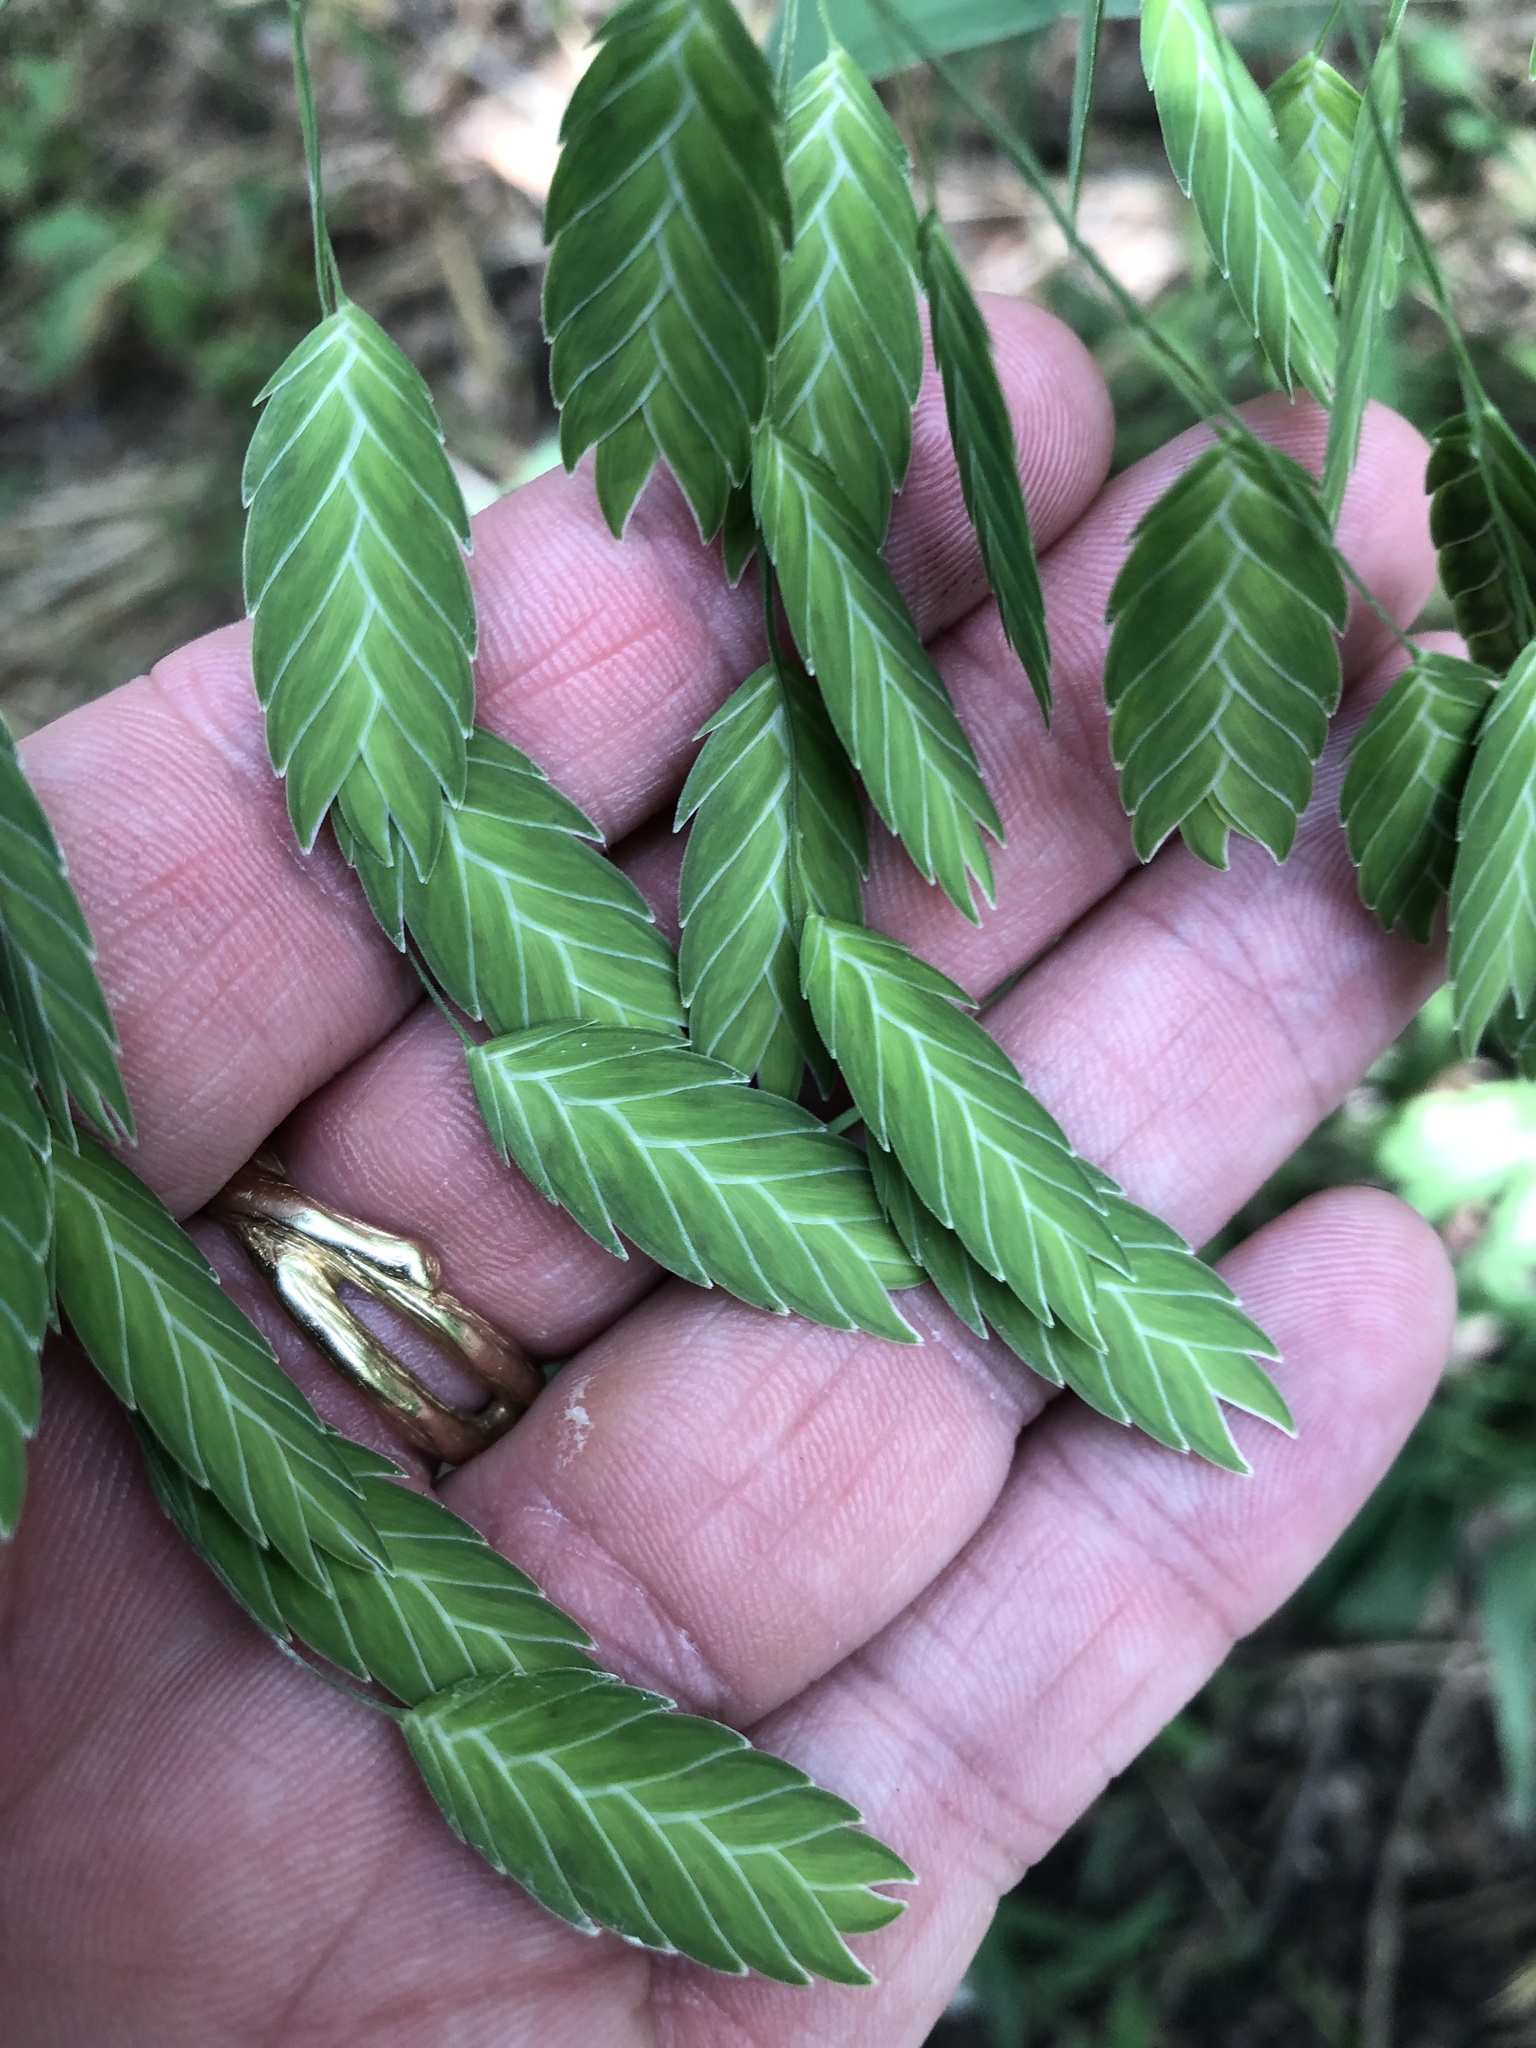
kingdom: Plantae
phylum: Tracheophyta
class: Liliopsida
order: Poales
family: Poaceae
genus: Chasmanthium
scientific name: Chasmanthium latifolium
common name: Broad-leaved chasmanthium
